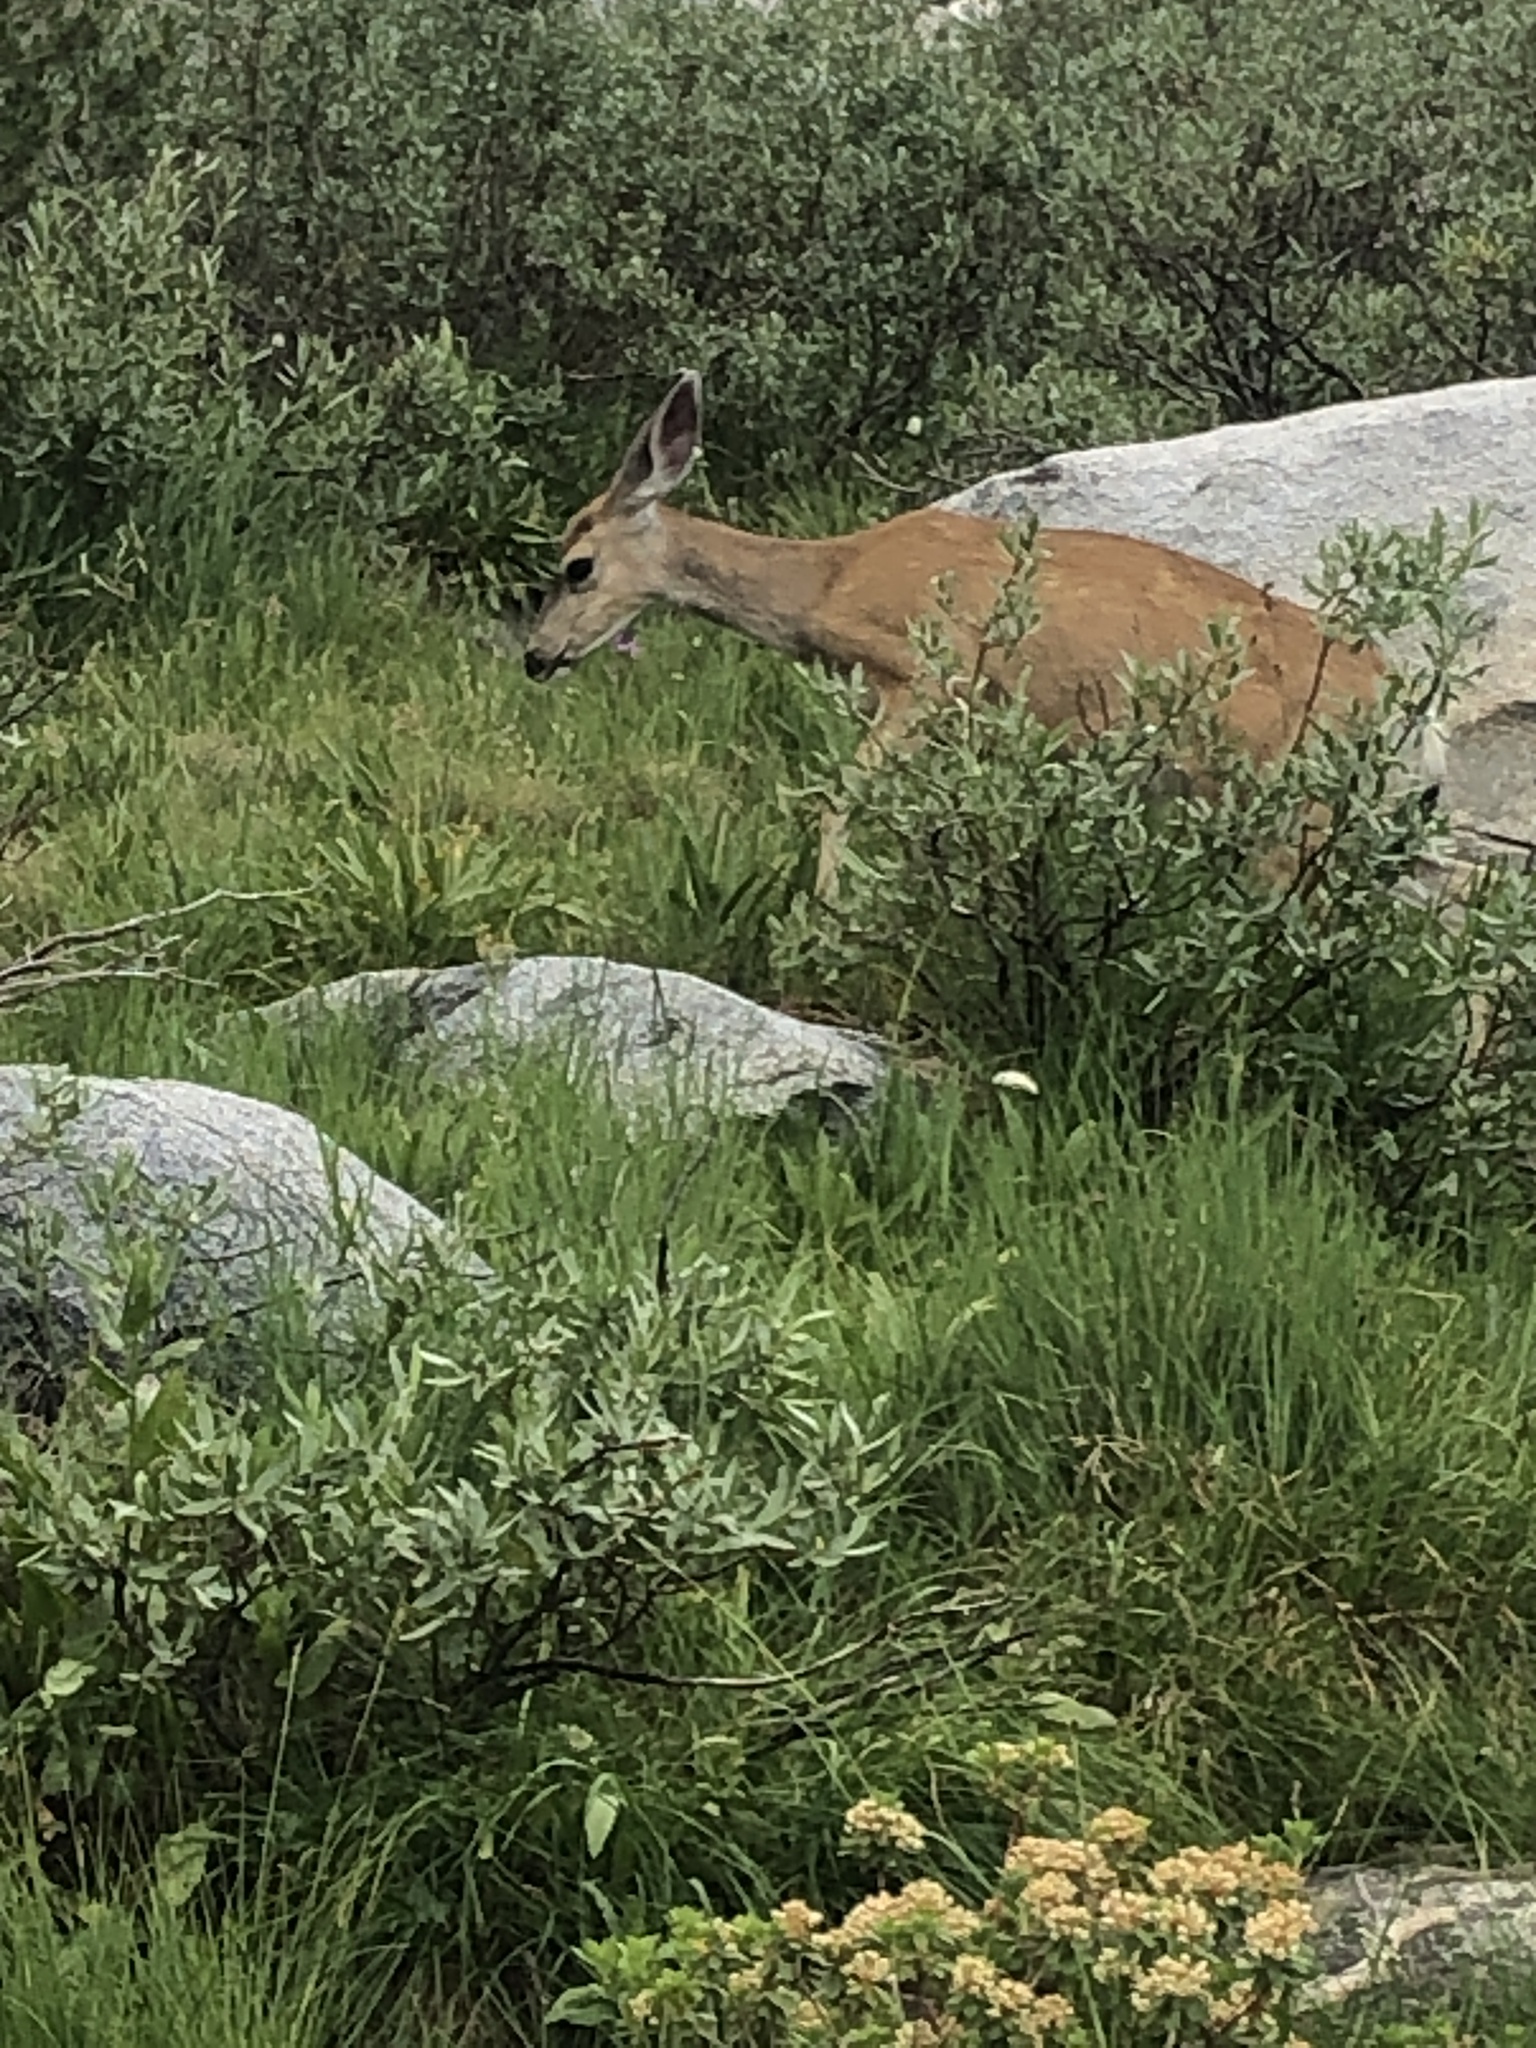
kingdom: Animalia
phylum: Chordata
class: Mammalia
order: Artiodactyla
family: Cervidae
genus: Odocoileus
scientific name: Odocoileus hemionus
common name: Mule deer
